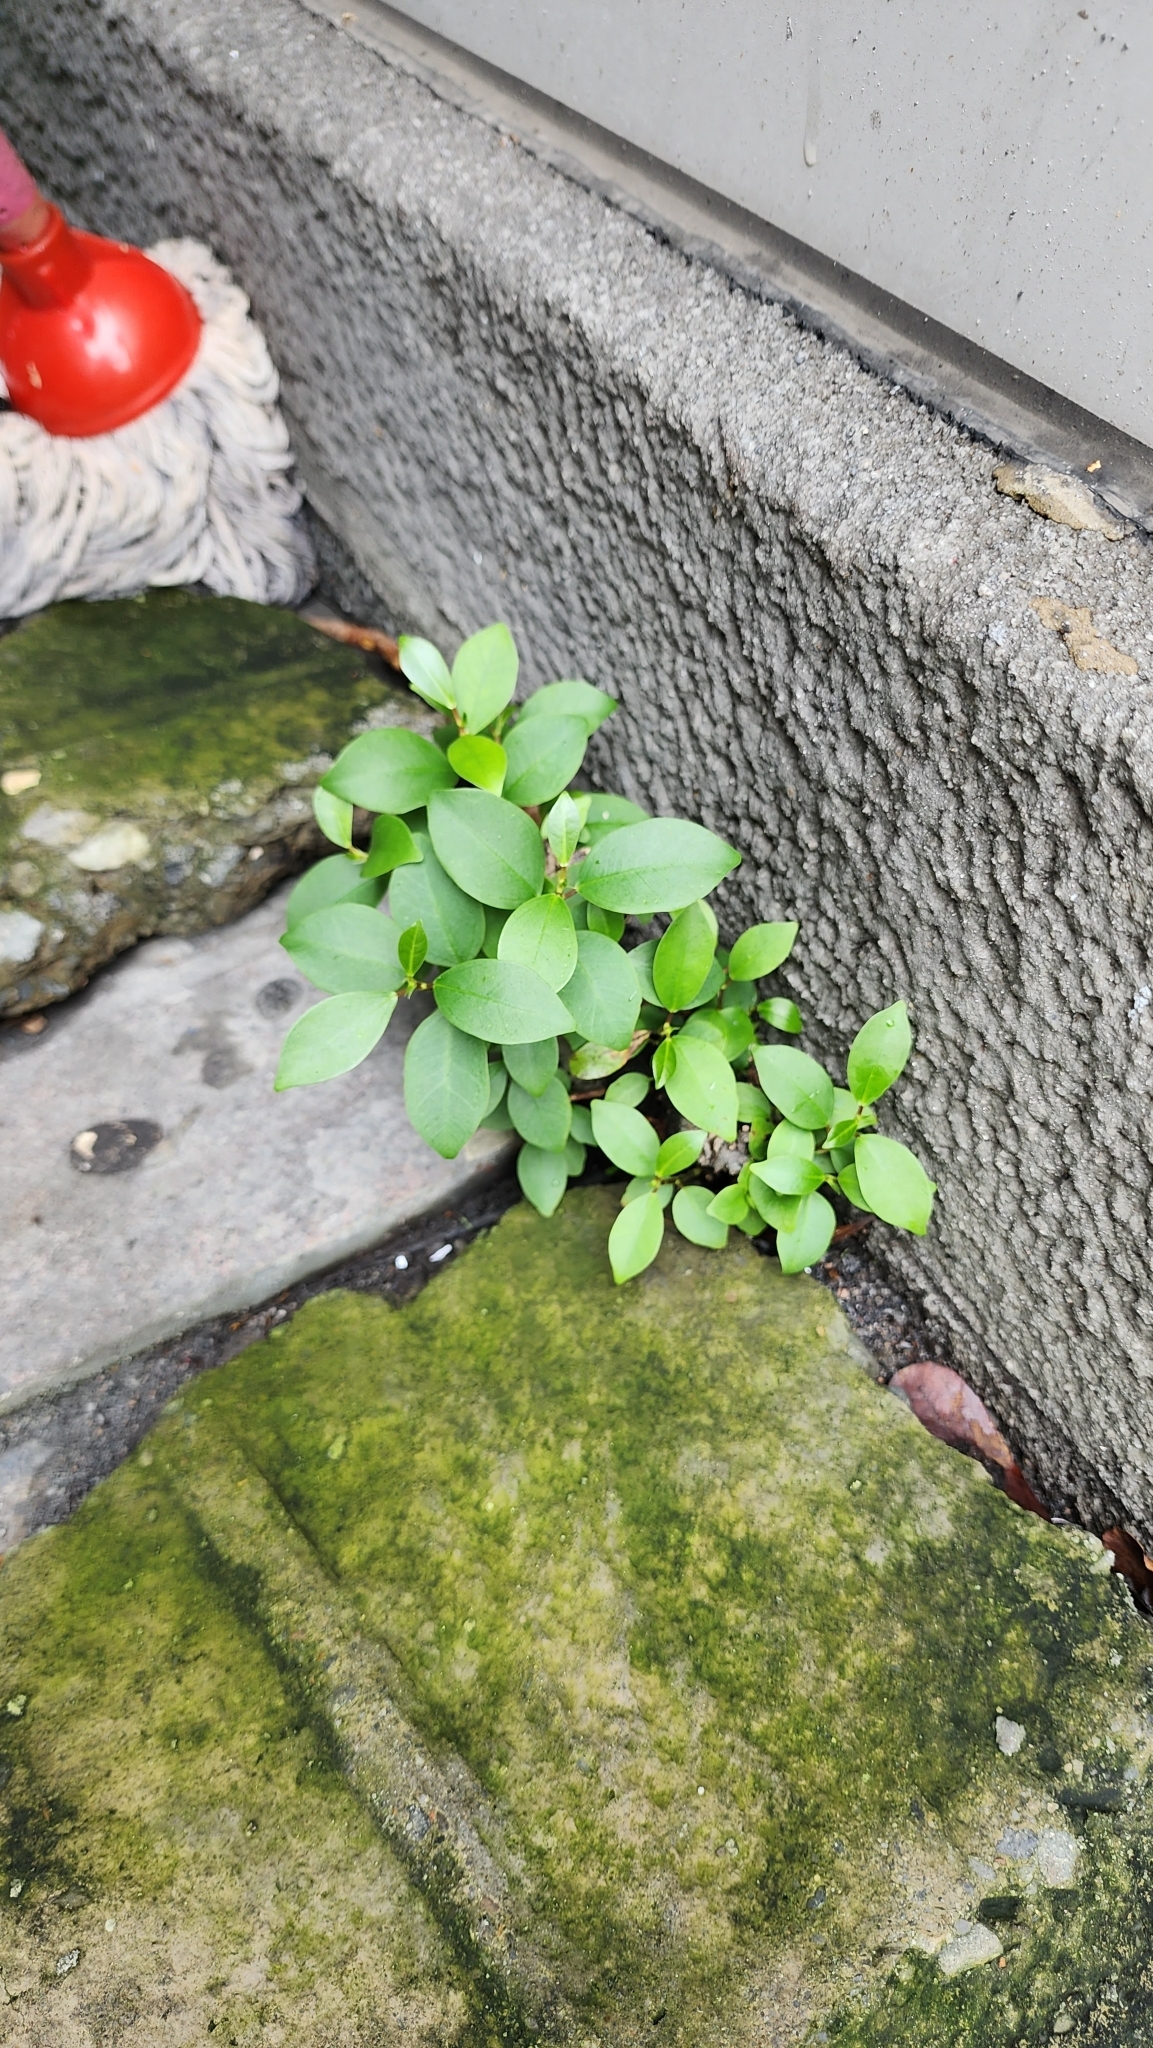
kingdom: Plantae
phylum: Tracheophyta
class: Magnoliopsida
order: Rosales
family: Moraceae
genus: Ficus
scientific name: Ficus microcarpa
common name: Chinese banyan
